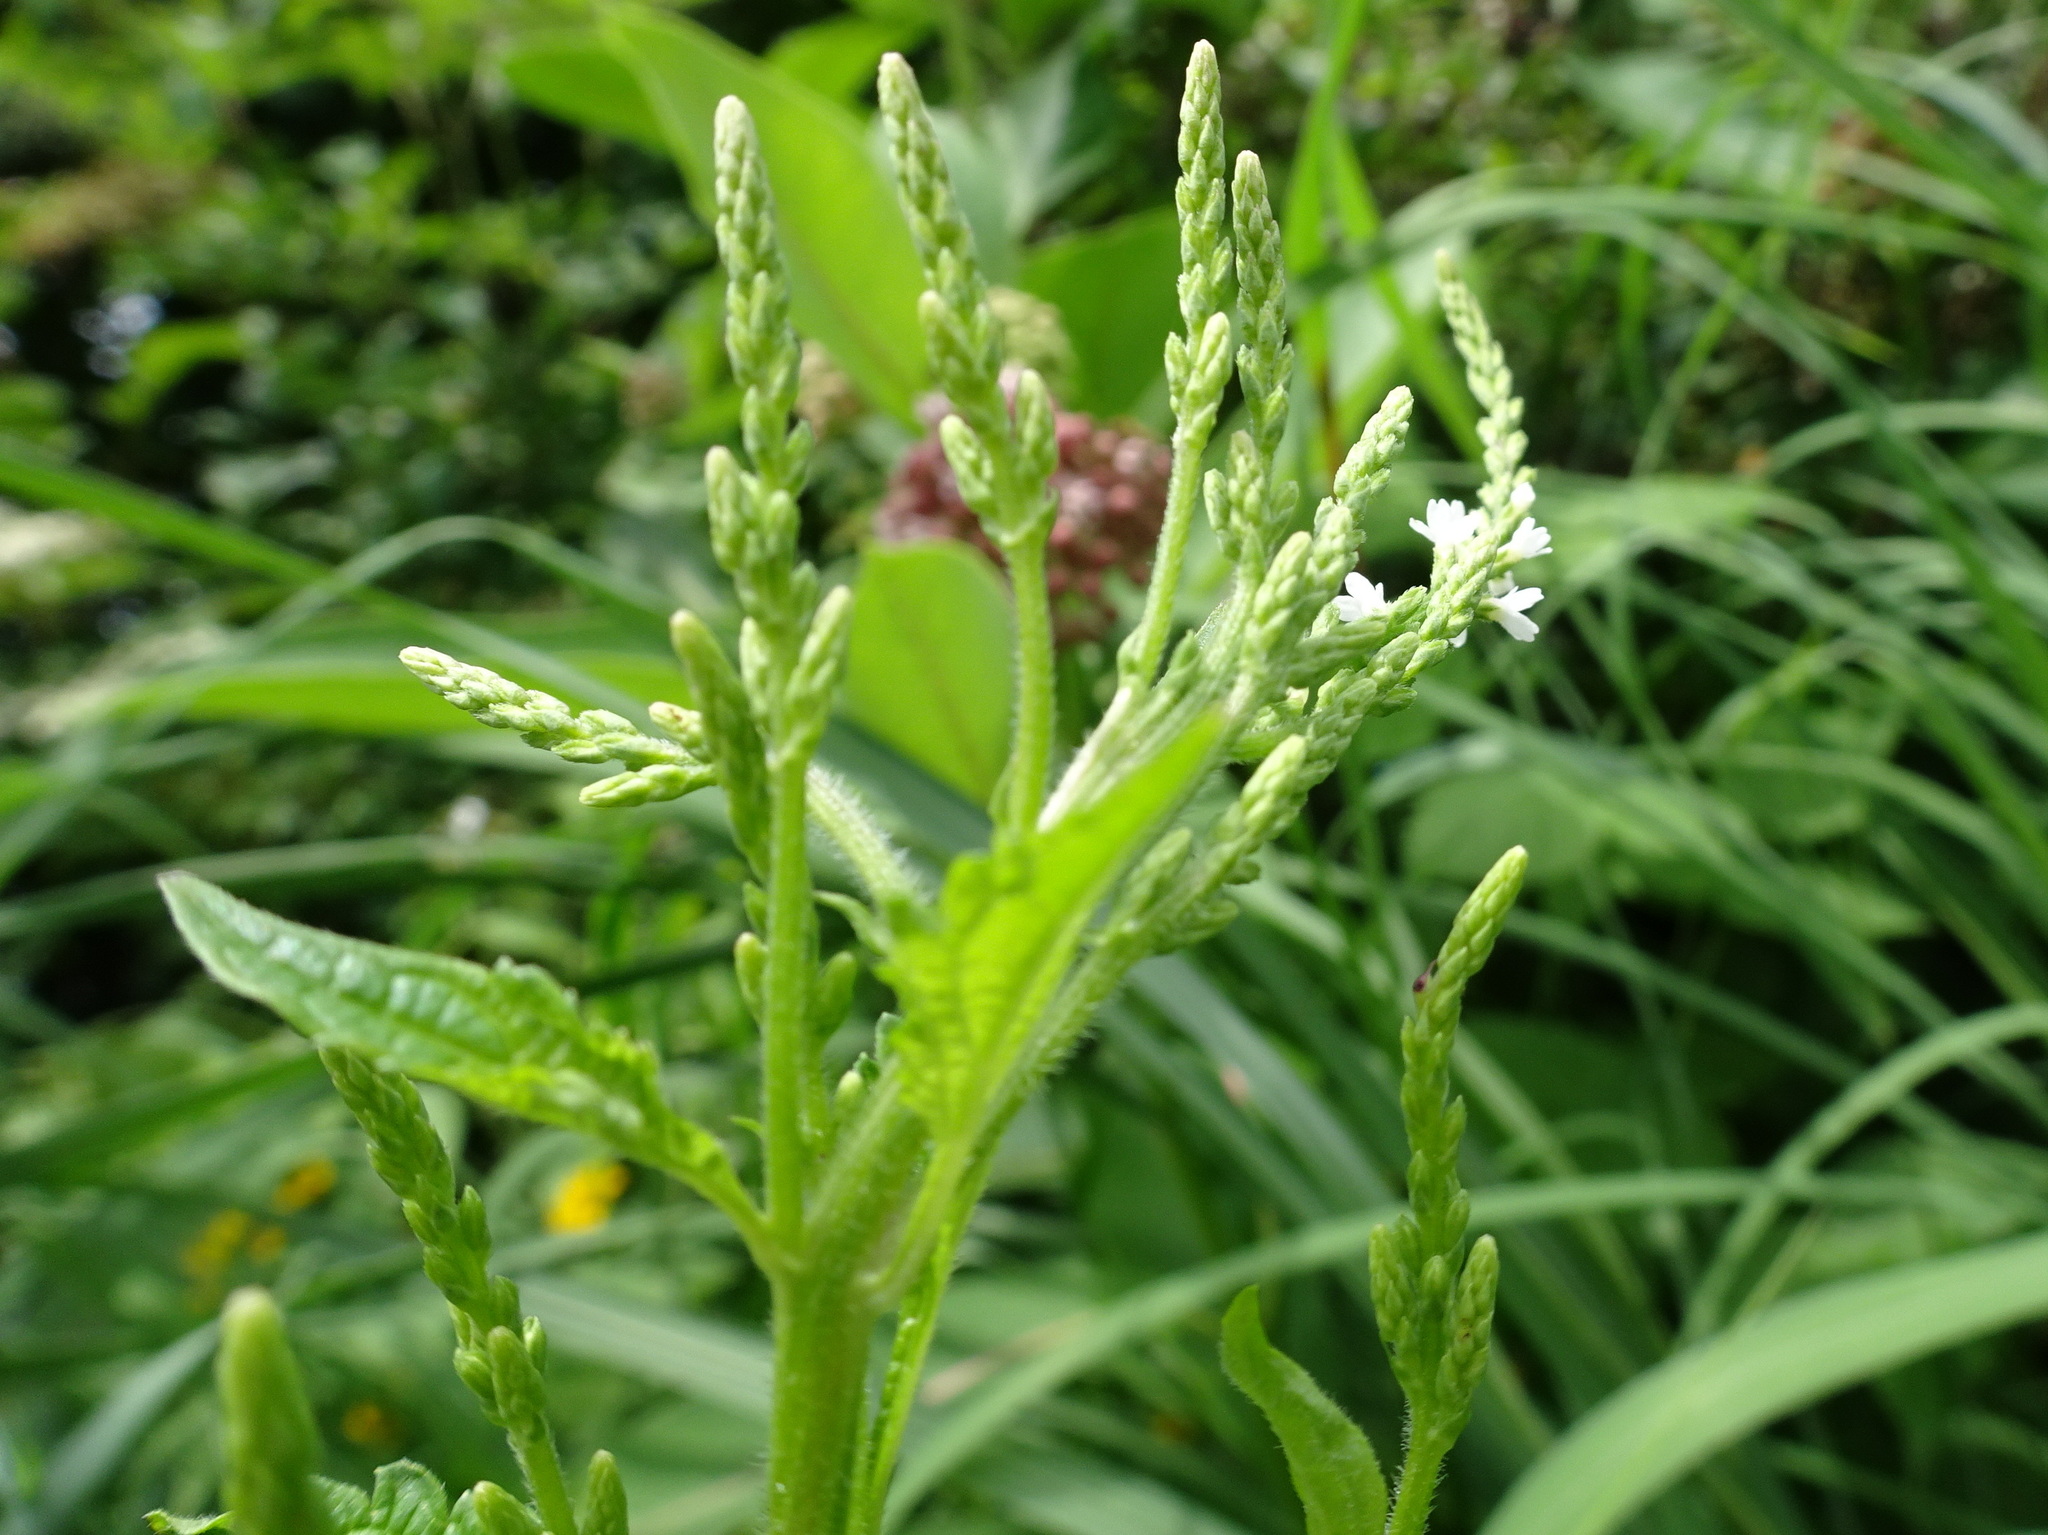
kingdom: Plantae
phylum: Tracheophyta
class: Magnoliopsida
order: Lamiales
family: Verbenaceae
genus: Verbena
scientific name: Verbena urticifolia
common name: Nettle-leaved vervain
